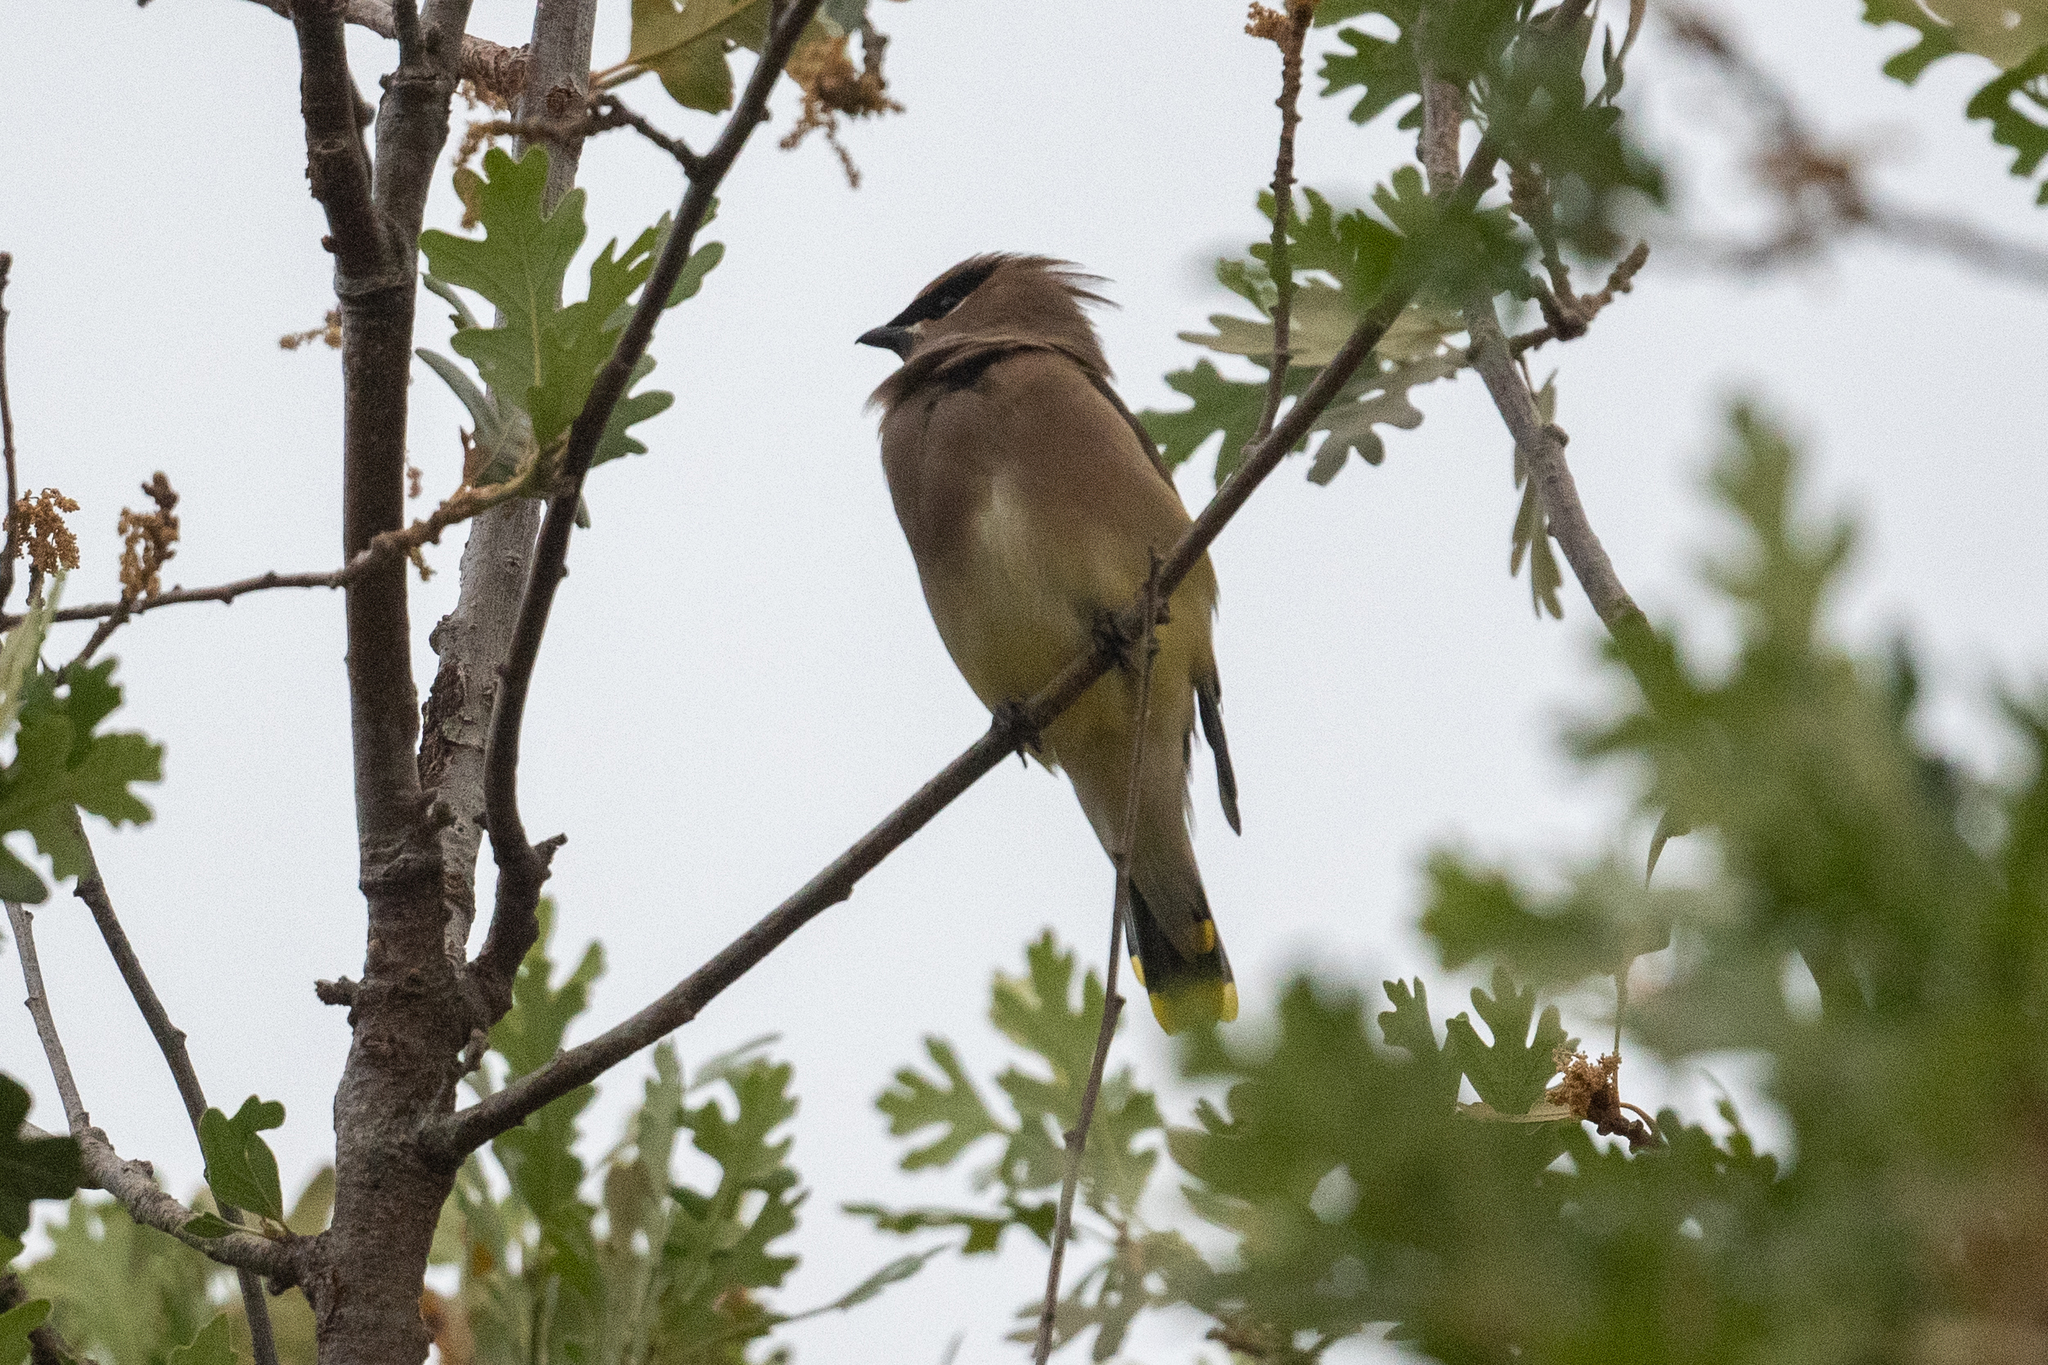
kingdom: Animalia
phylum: Chordata
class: Aves
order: Passeriformes
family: Bombycillidae
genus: Bombycilla
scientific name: Bombycilla cedrorum
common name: Cedar waxwing
